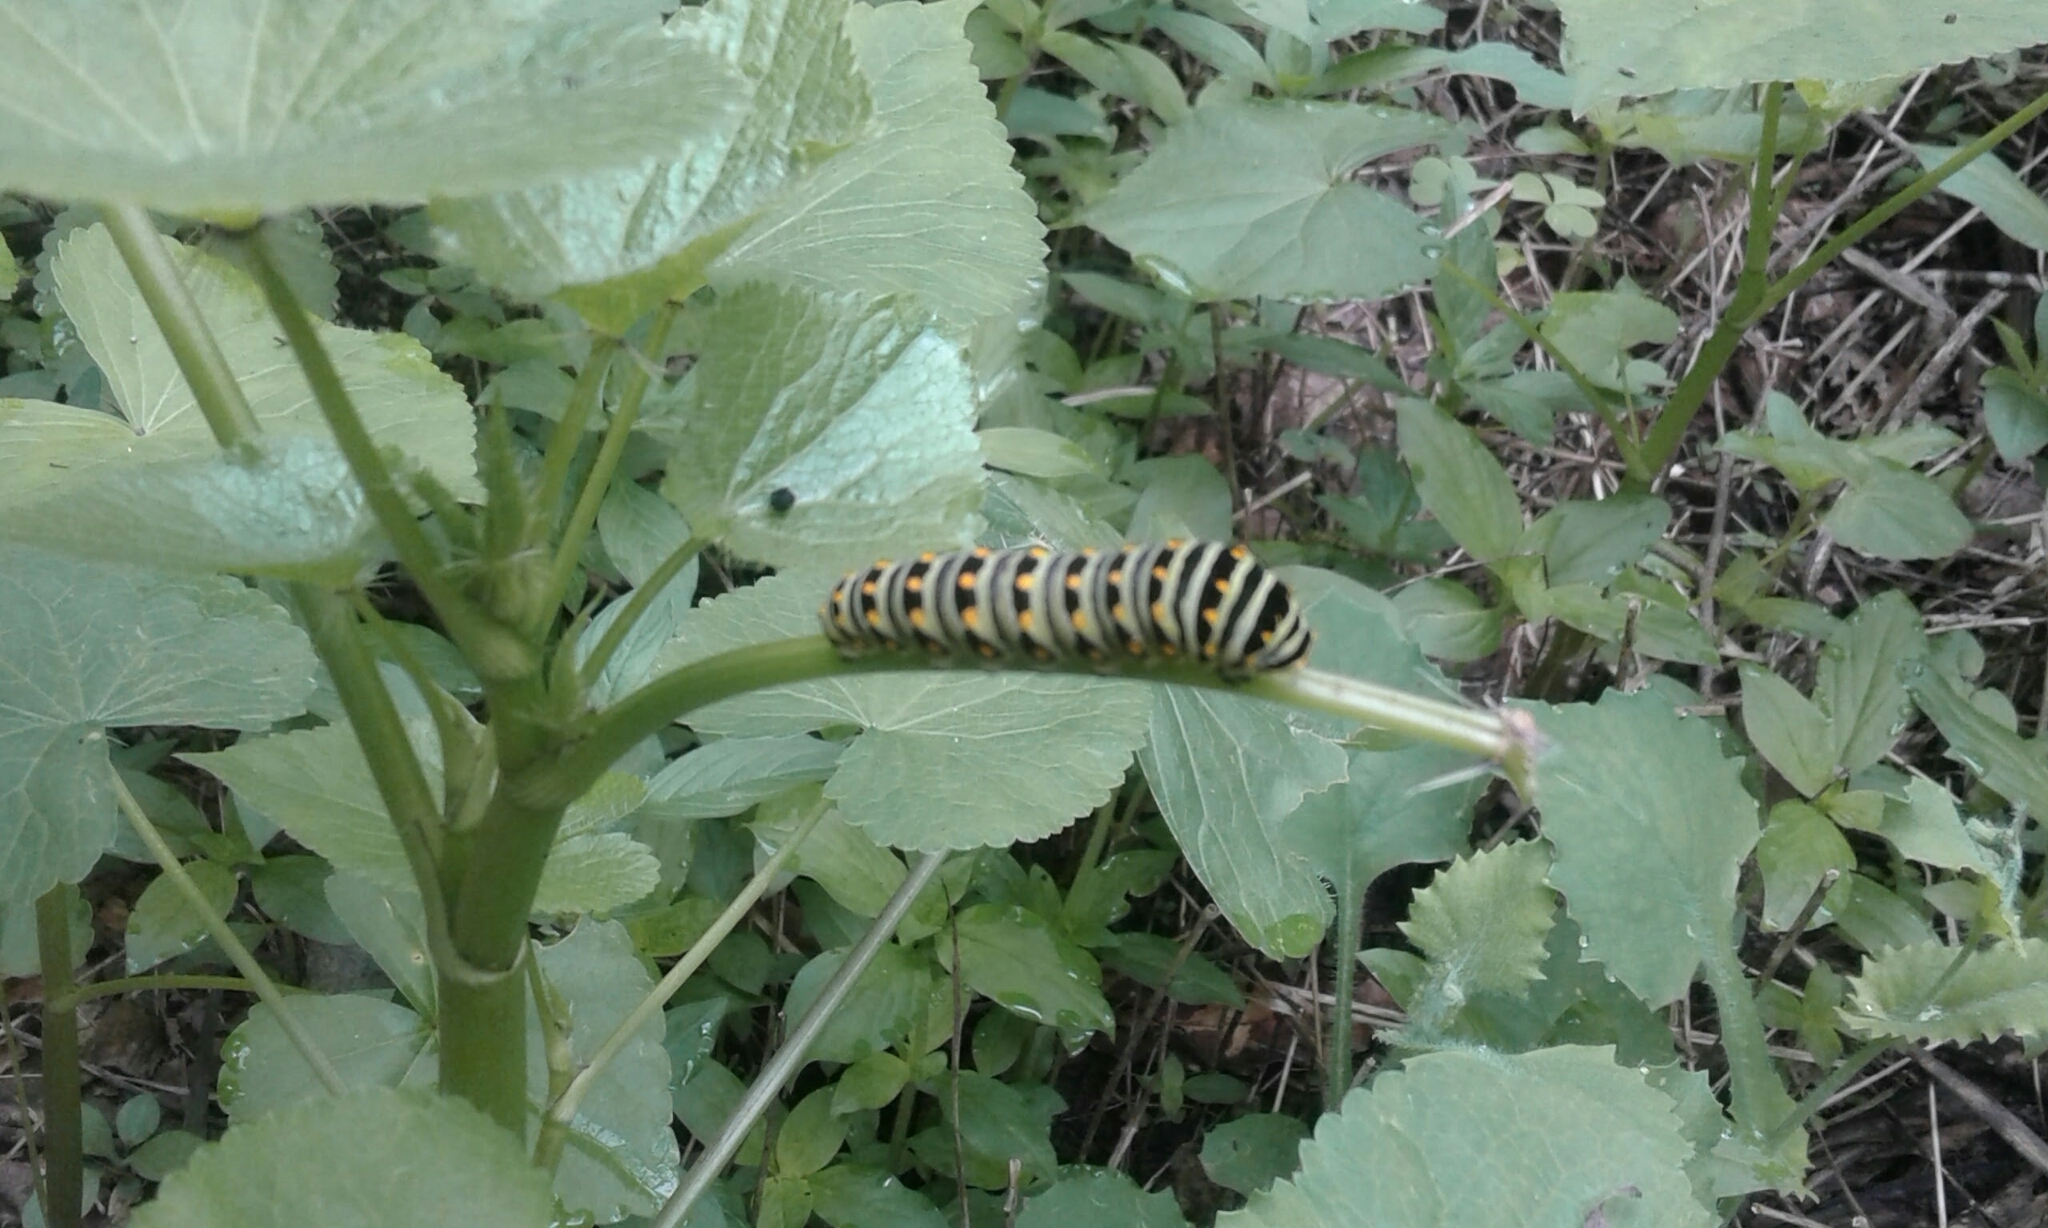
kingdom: Animalia
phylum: Arthropoda
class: Insecta
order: Lepidoptera
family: Papilionidae
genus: Papilio
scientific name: Papilio polyxenes
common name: Black swallowtail
